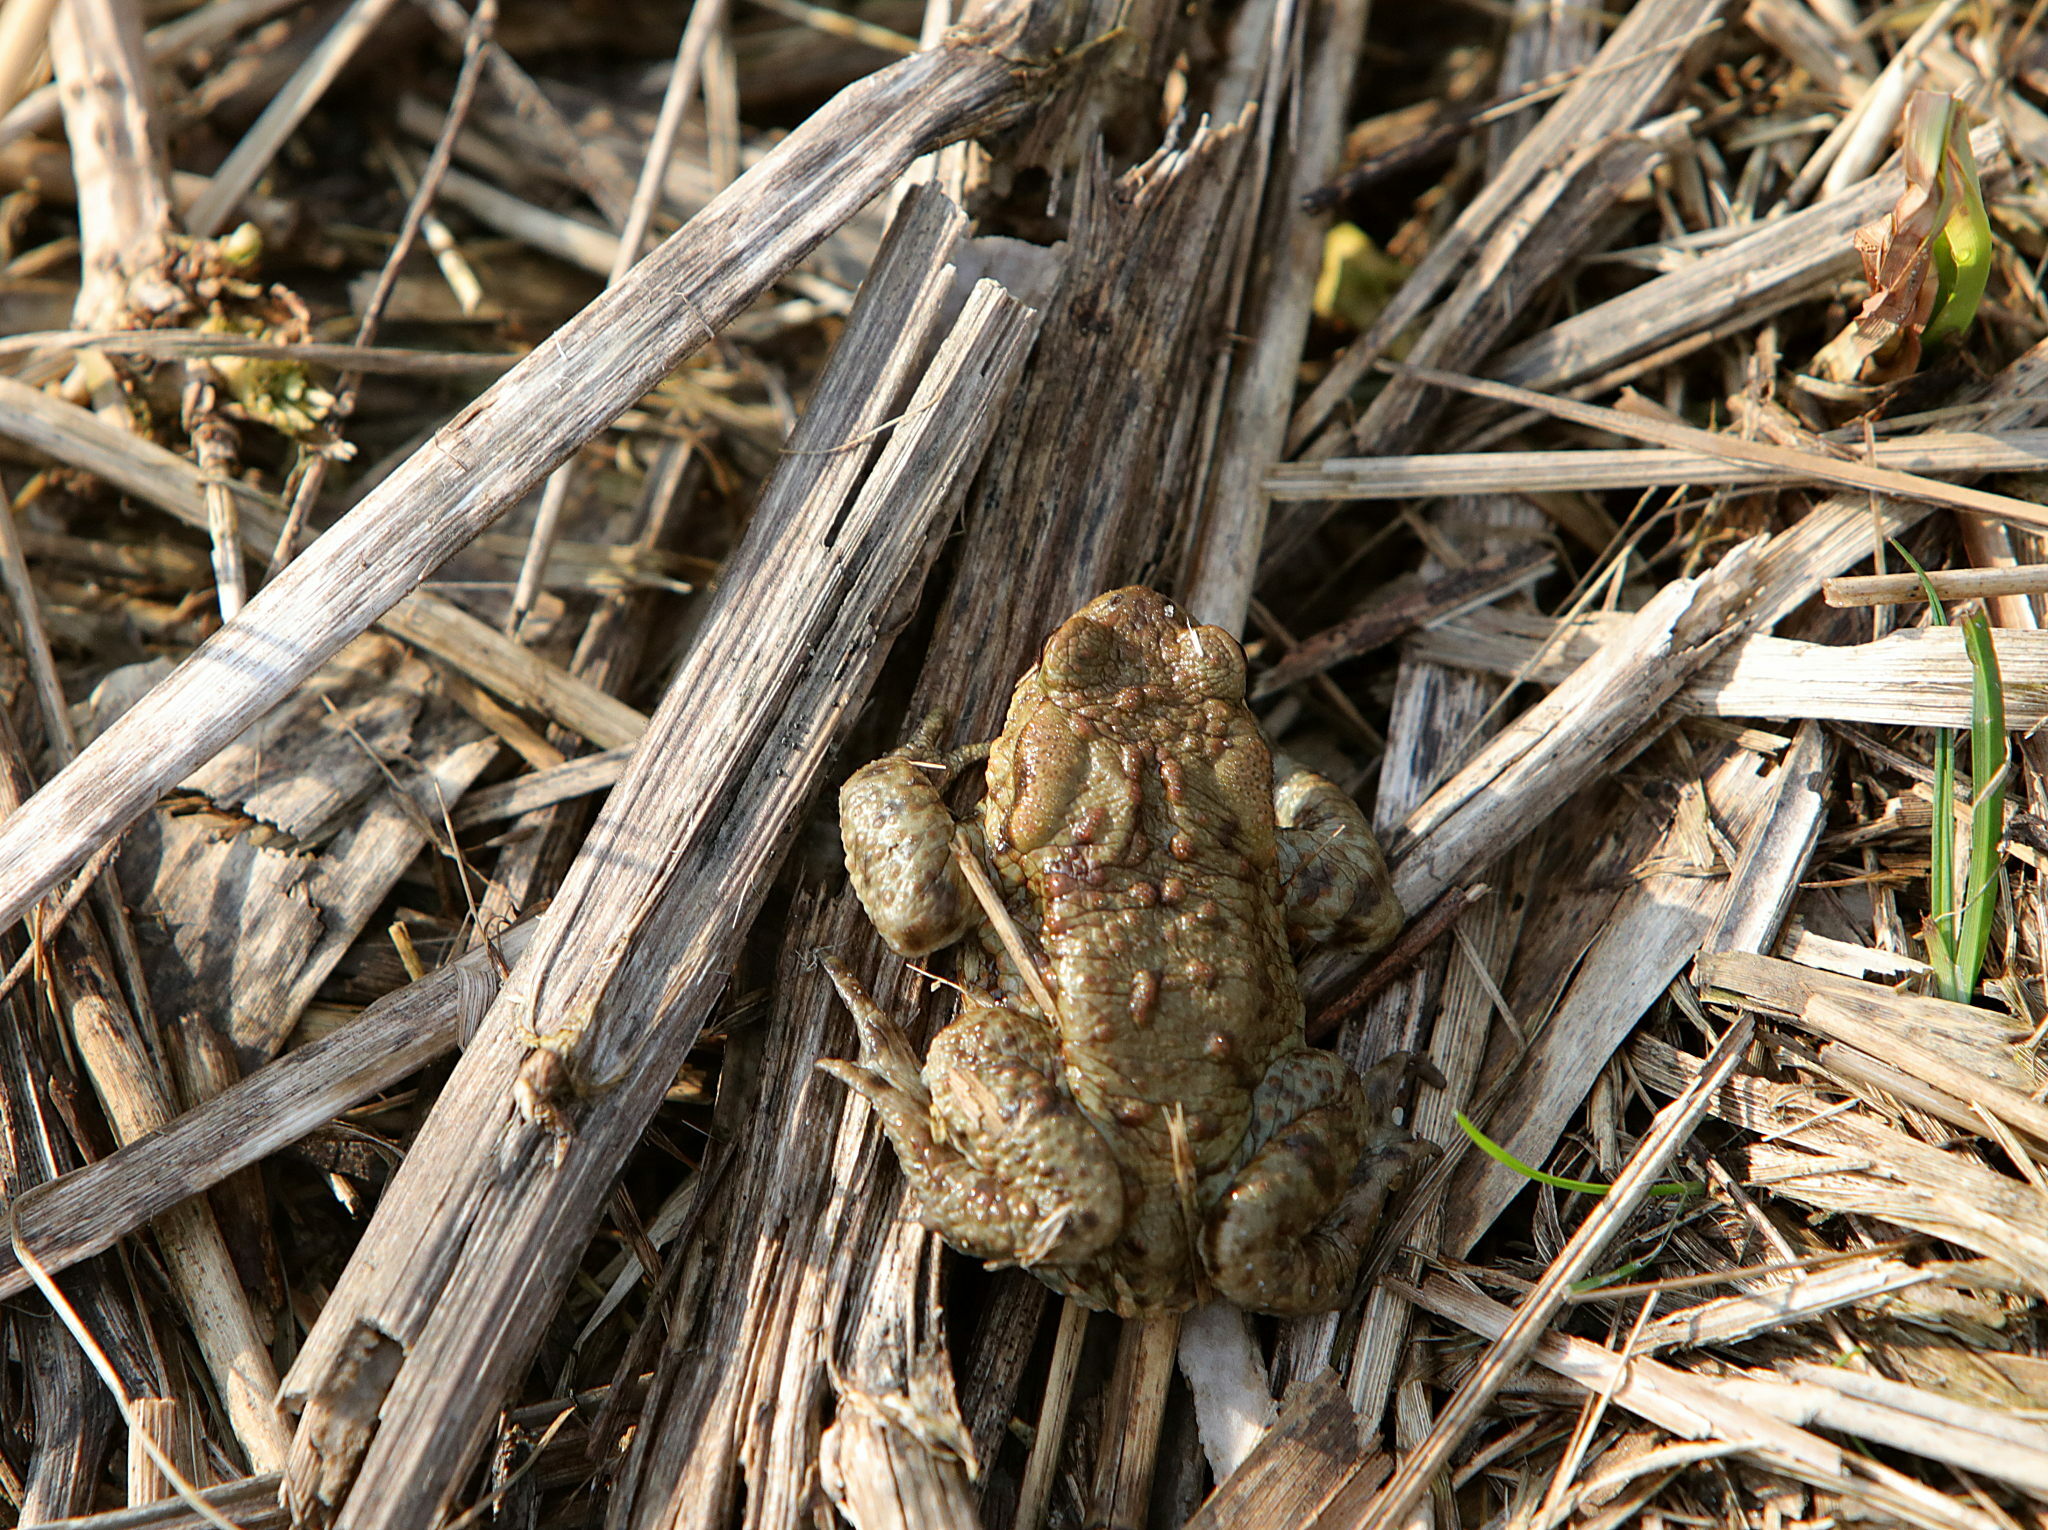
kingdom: Animalia
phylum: Chordata
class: Amphibia
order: Anura
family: Bufonidae
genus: Bufo
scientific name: Bufo bufo
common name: Common toad
